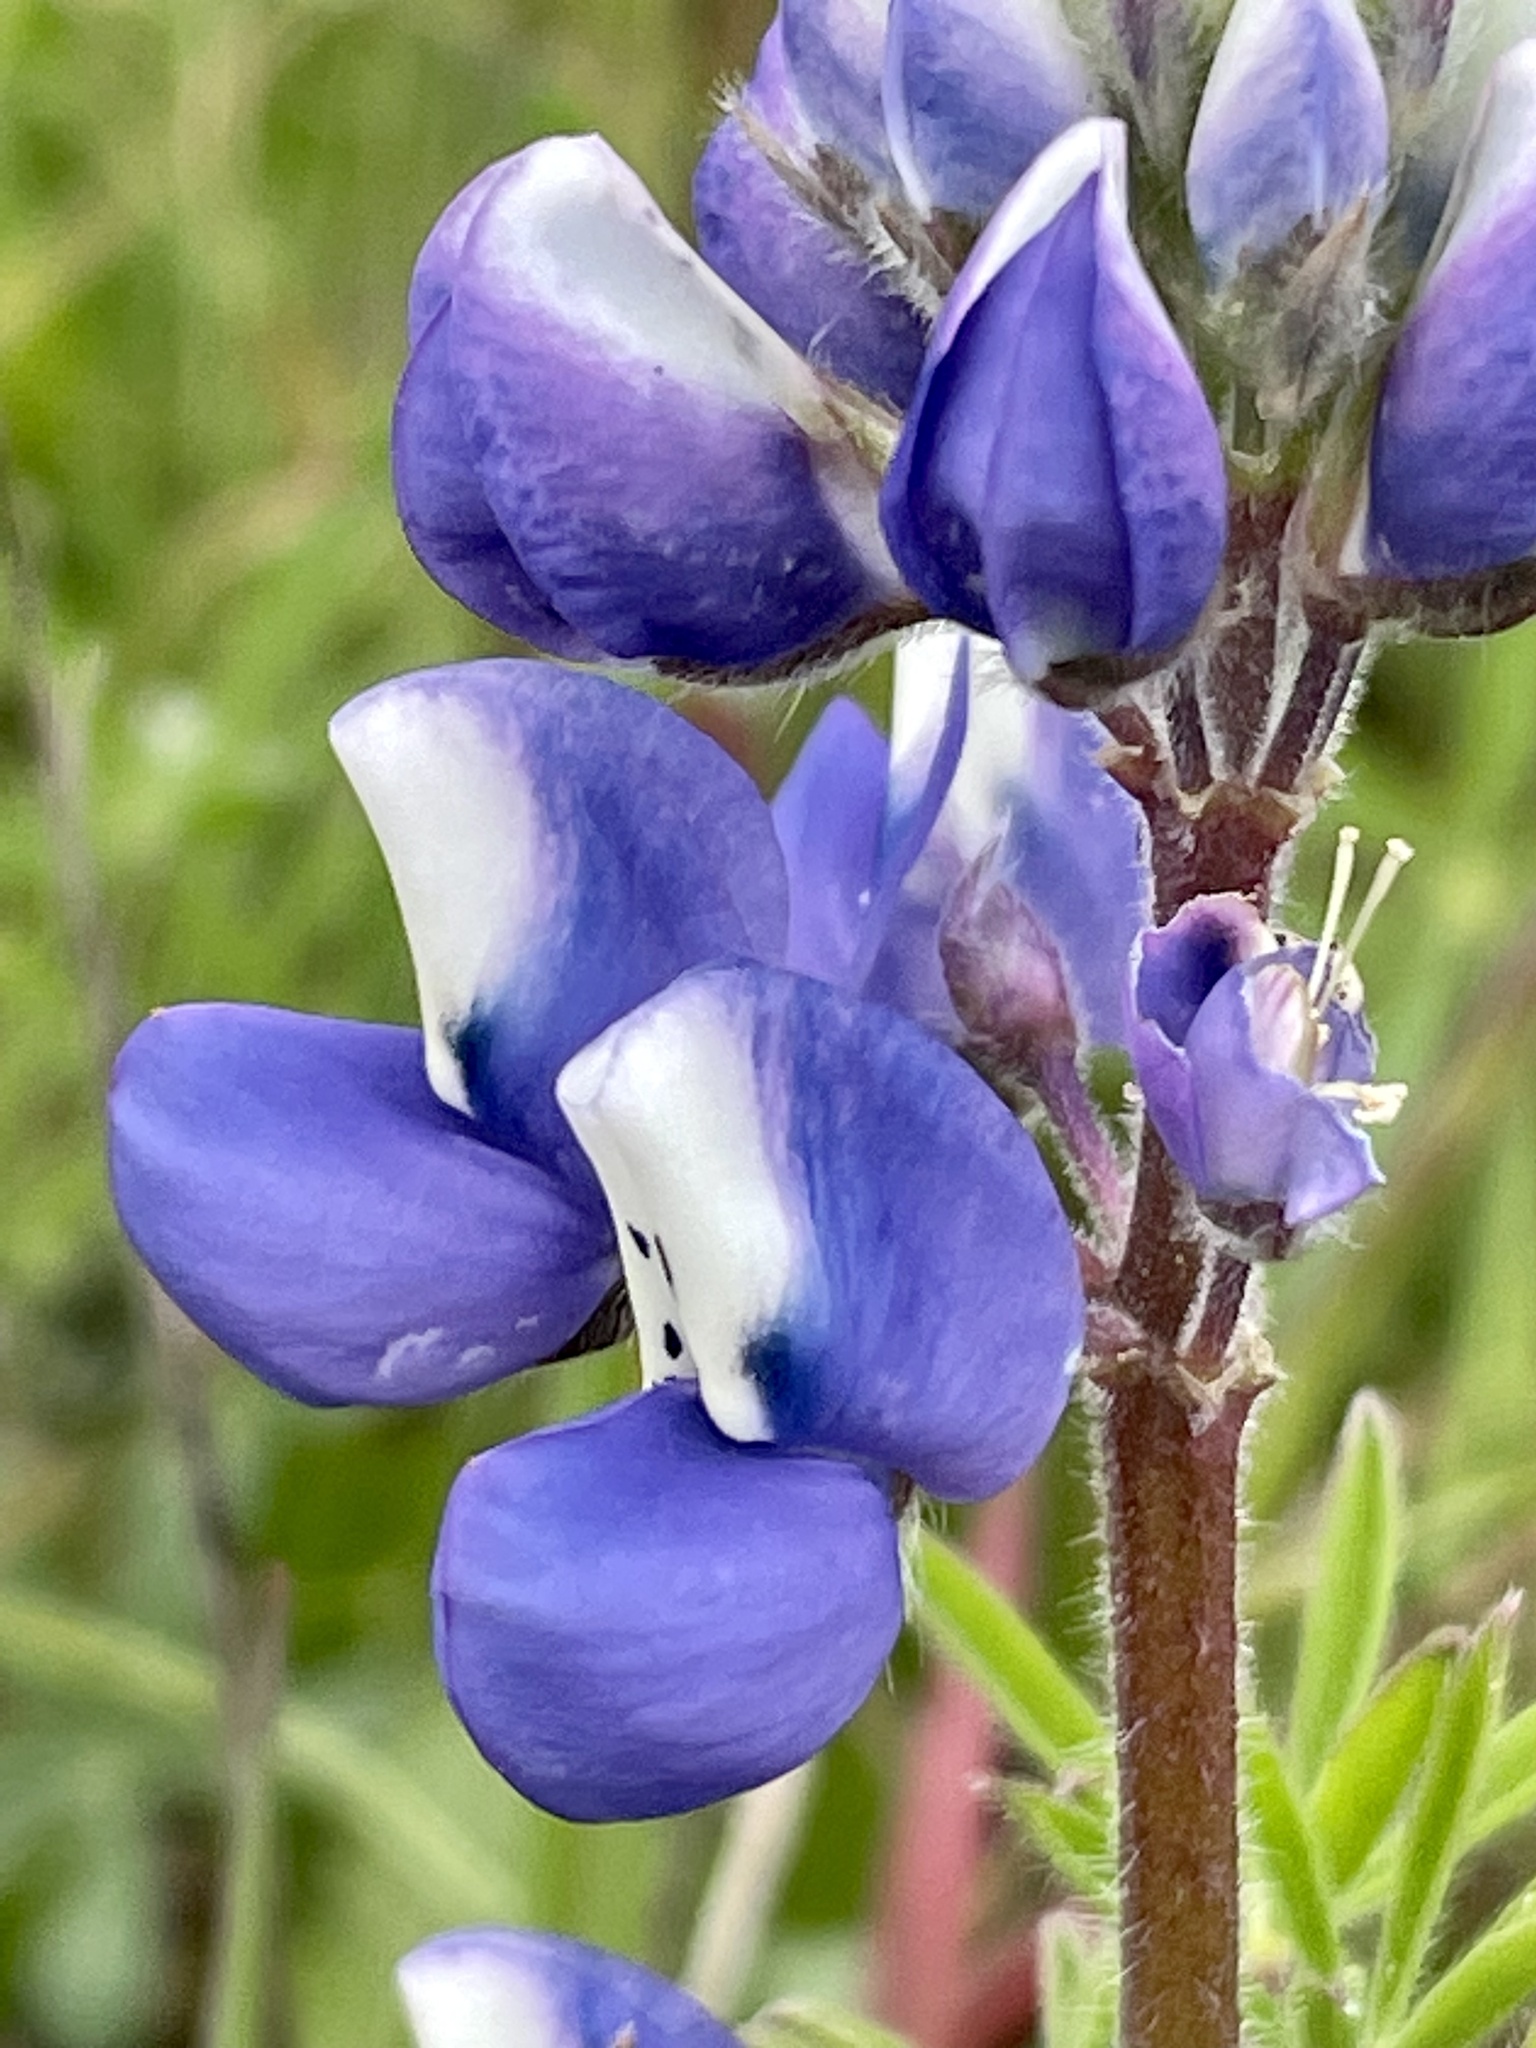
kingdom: Plantae
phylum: Tracheophyta
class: Magnoliopsida
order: Fabales
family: Fabaceae
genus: Lupinus
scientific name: Lupinus nanus
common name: Orean blue lupin
